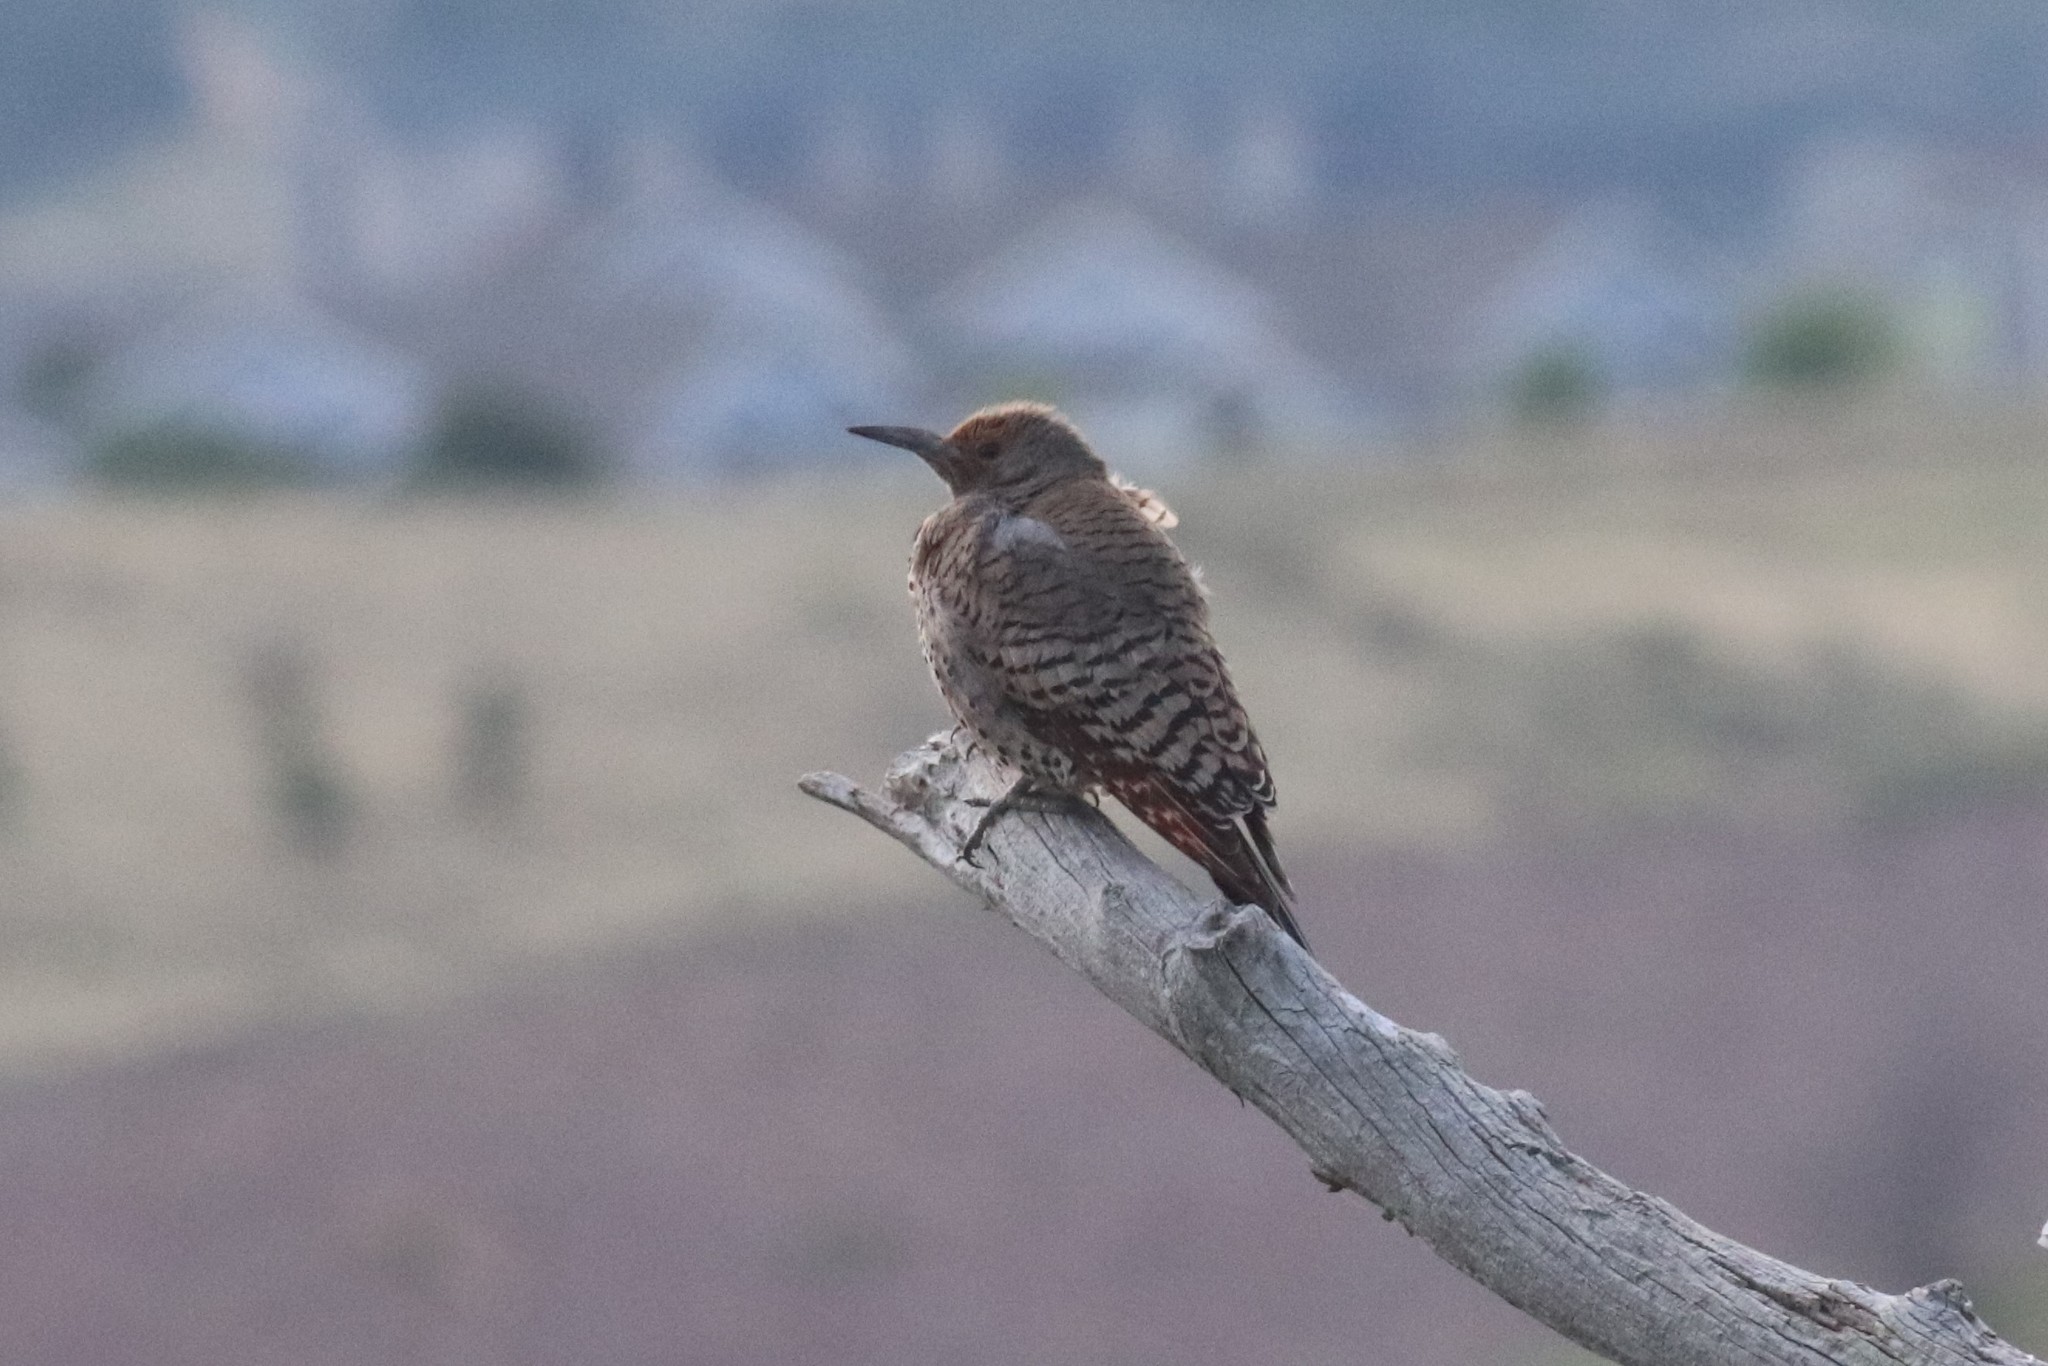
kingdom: Animalia
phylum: Chordata
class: Aves
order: Piciformes
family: Picidae
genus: Colaptes
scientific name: Colaptes auratus
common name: Northern flicker
